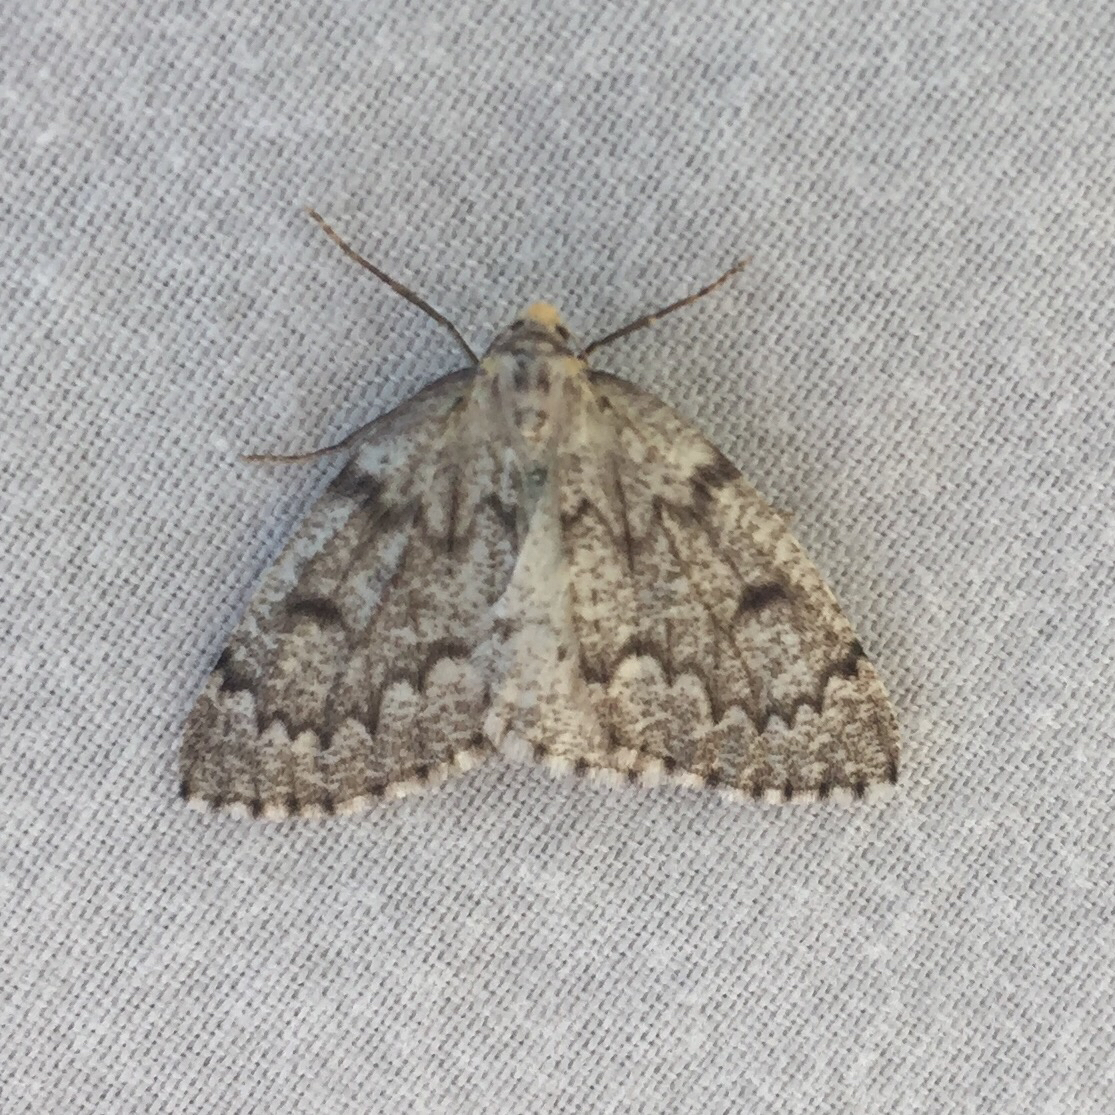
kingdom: Animalia
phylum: Arthropoda
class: Insecta
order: Lepidoptera
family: Geometridae
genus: Nepytia
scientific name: Nepytia canosaria
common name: False hemlock looper
